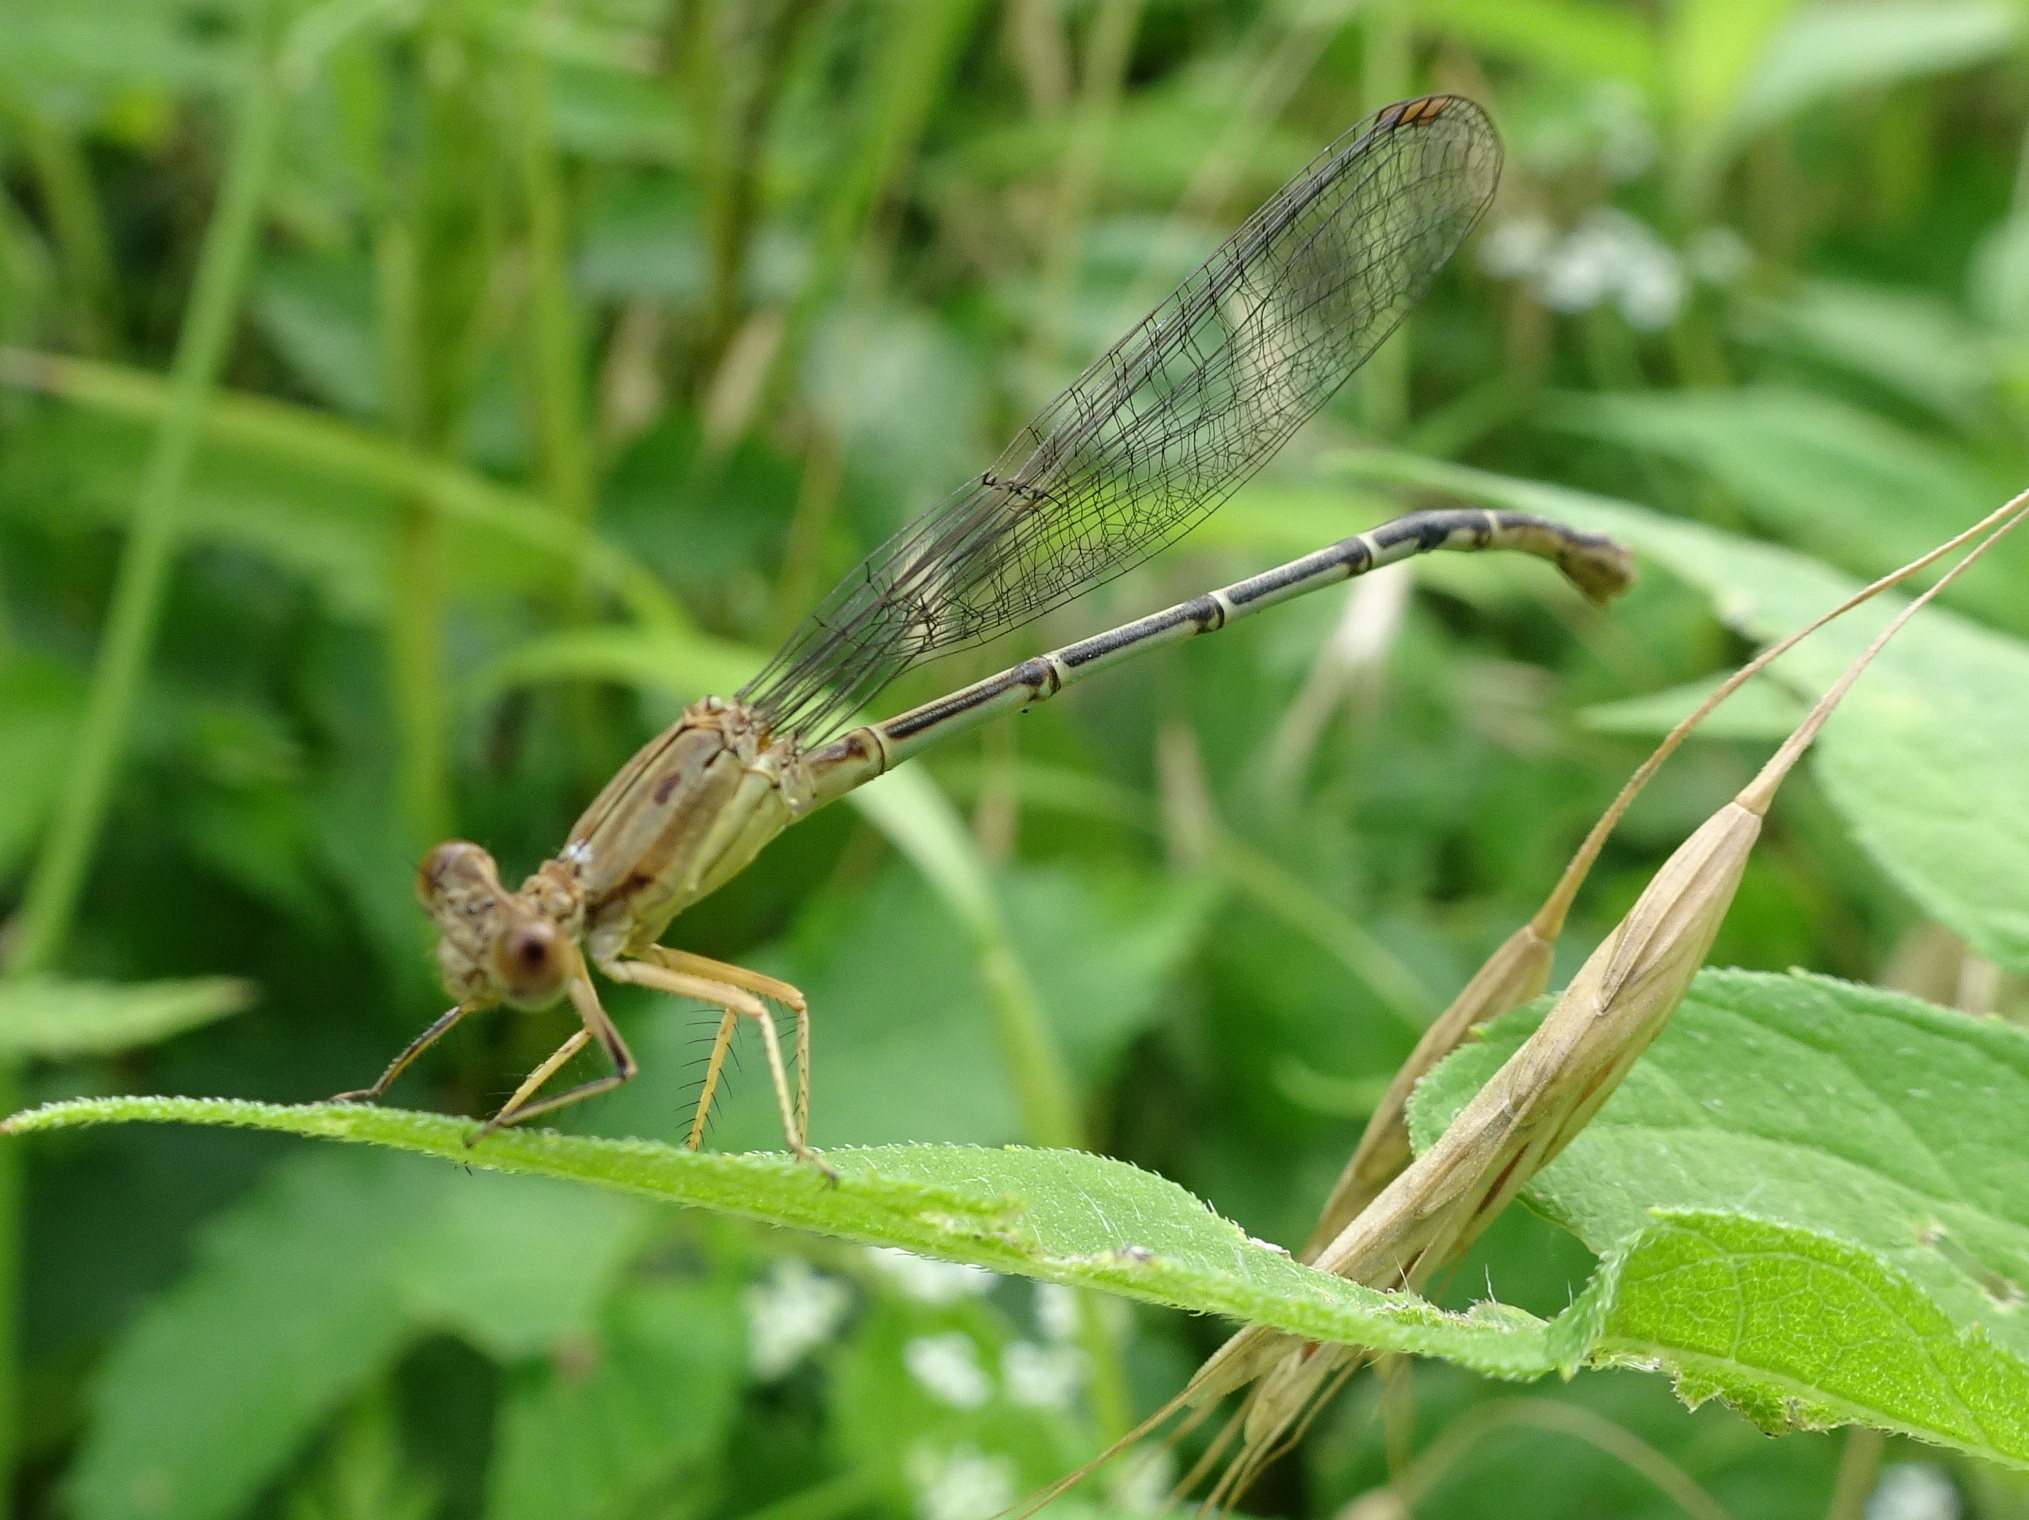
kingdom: Animalia
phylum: Arthropoda
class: Insecta
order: Odonata
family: Coenagrionidae
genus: Argia
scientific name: Argia apicalis
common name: Blue-fronted dancer
